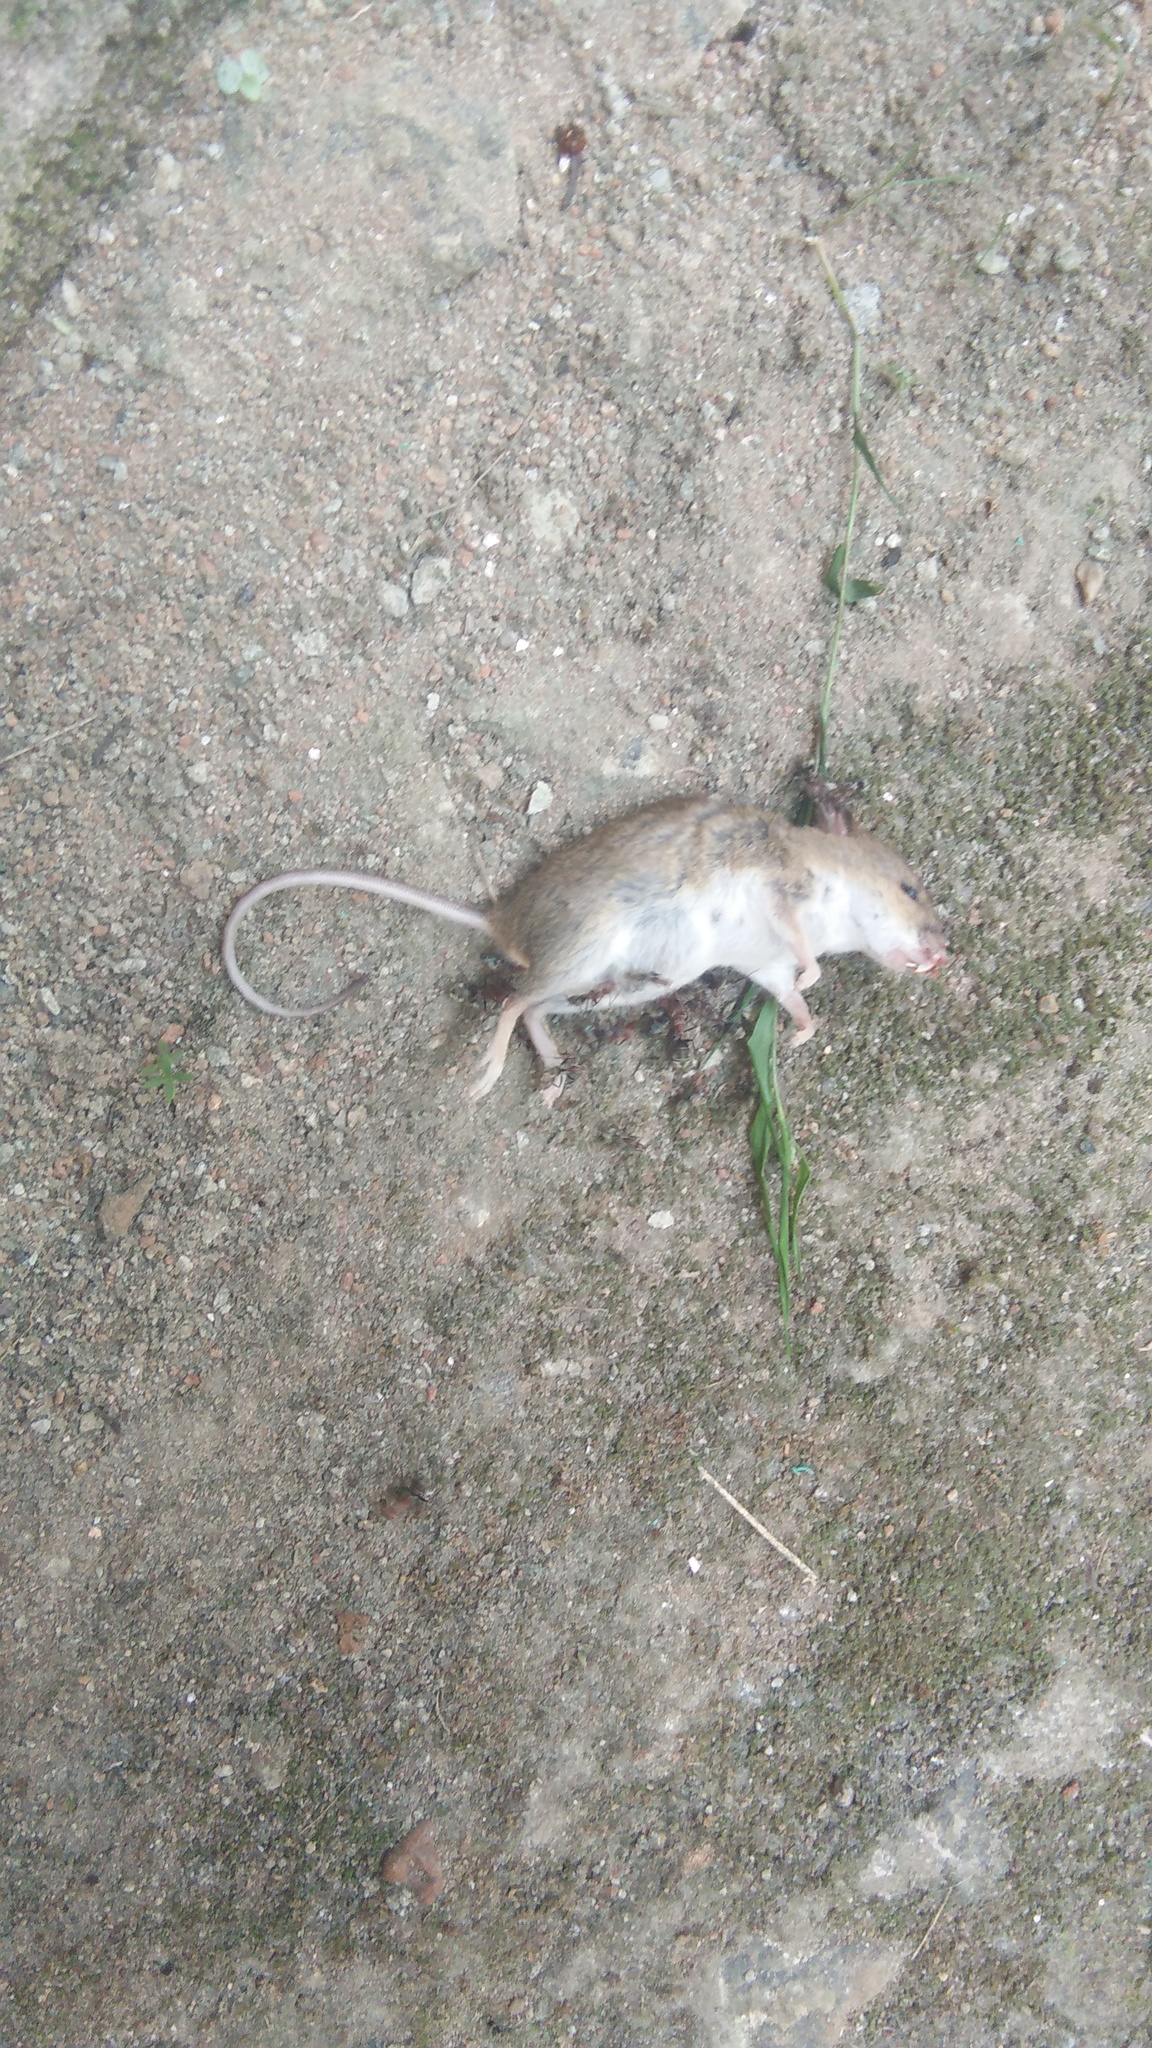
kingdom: Animalia
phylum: Chordata
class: Mammalia
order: Rodentia
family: Muridae
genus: Mus
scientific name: Mus musculus
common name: House mouse
